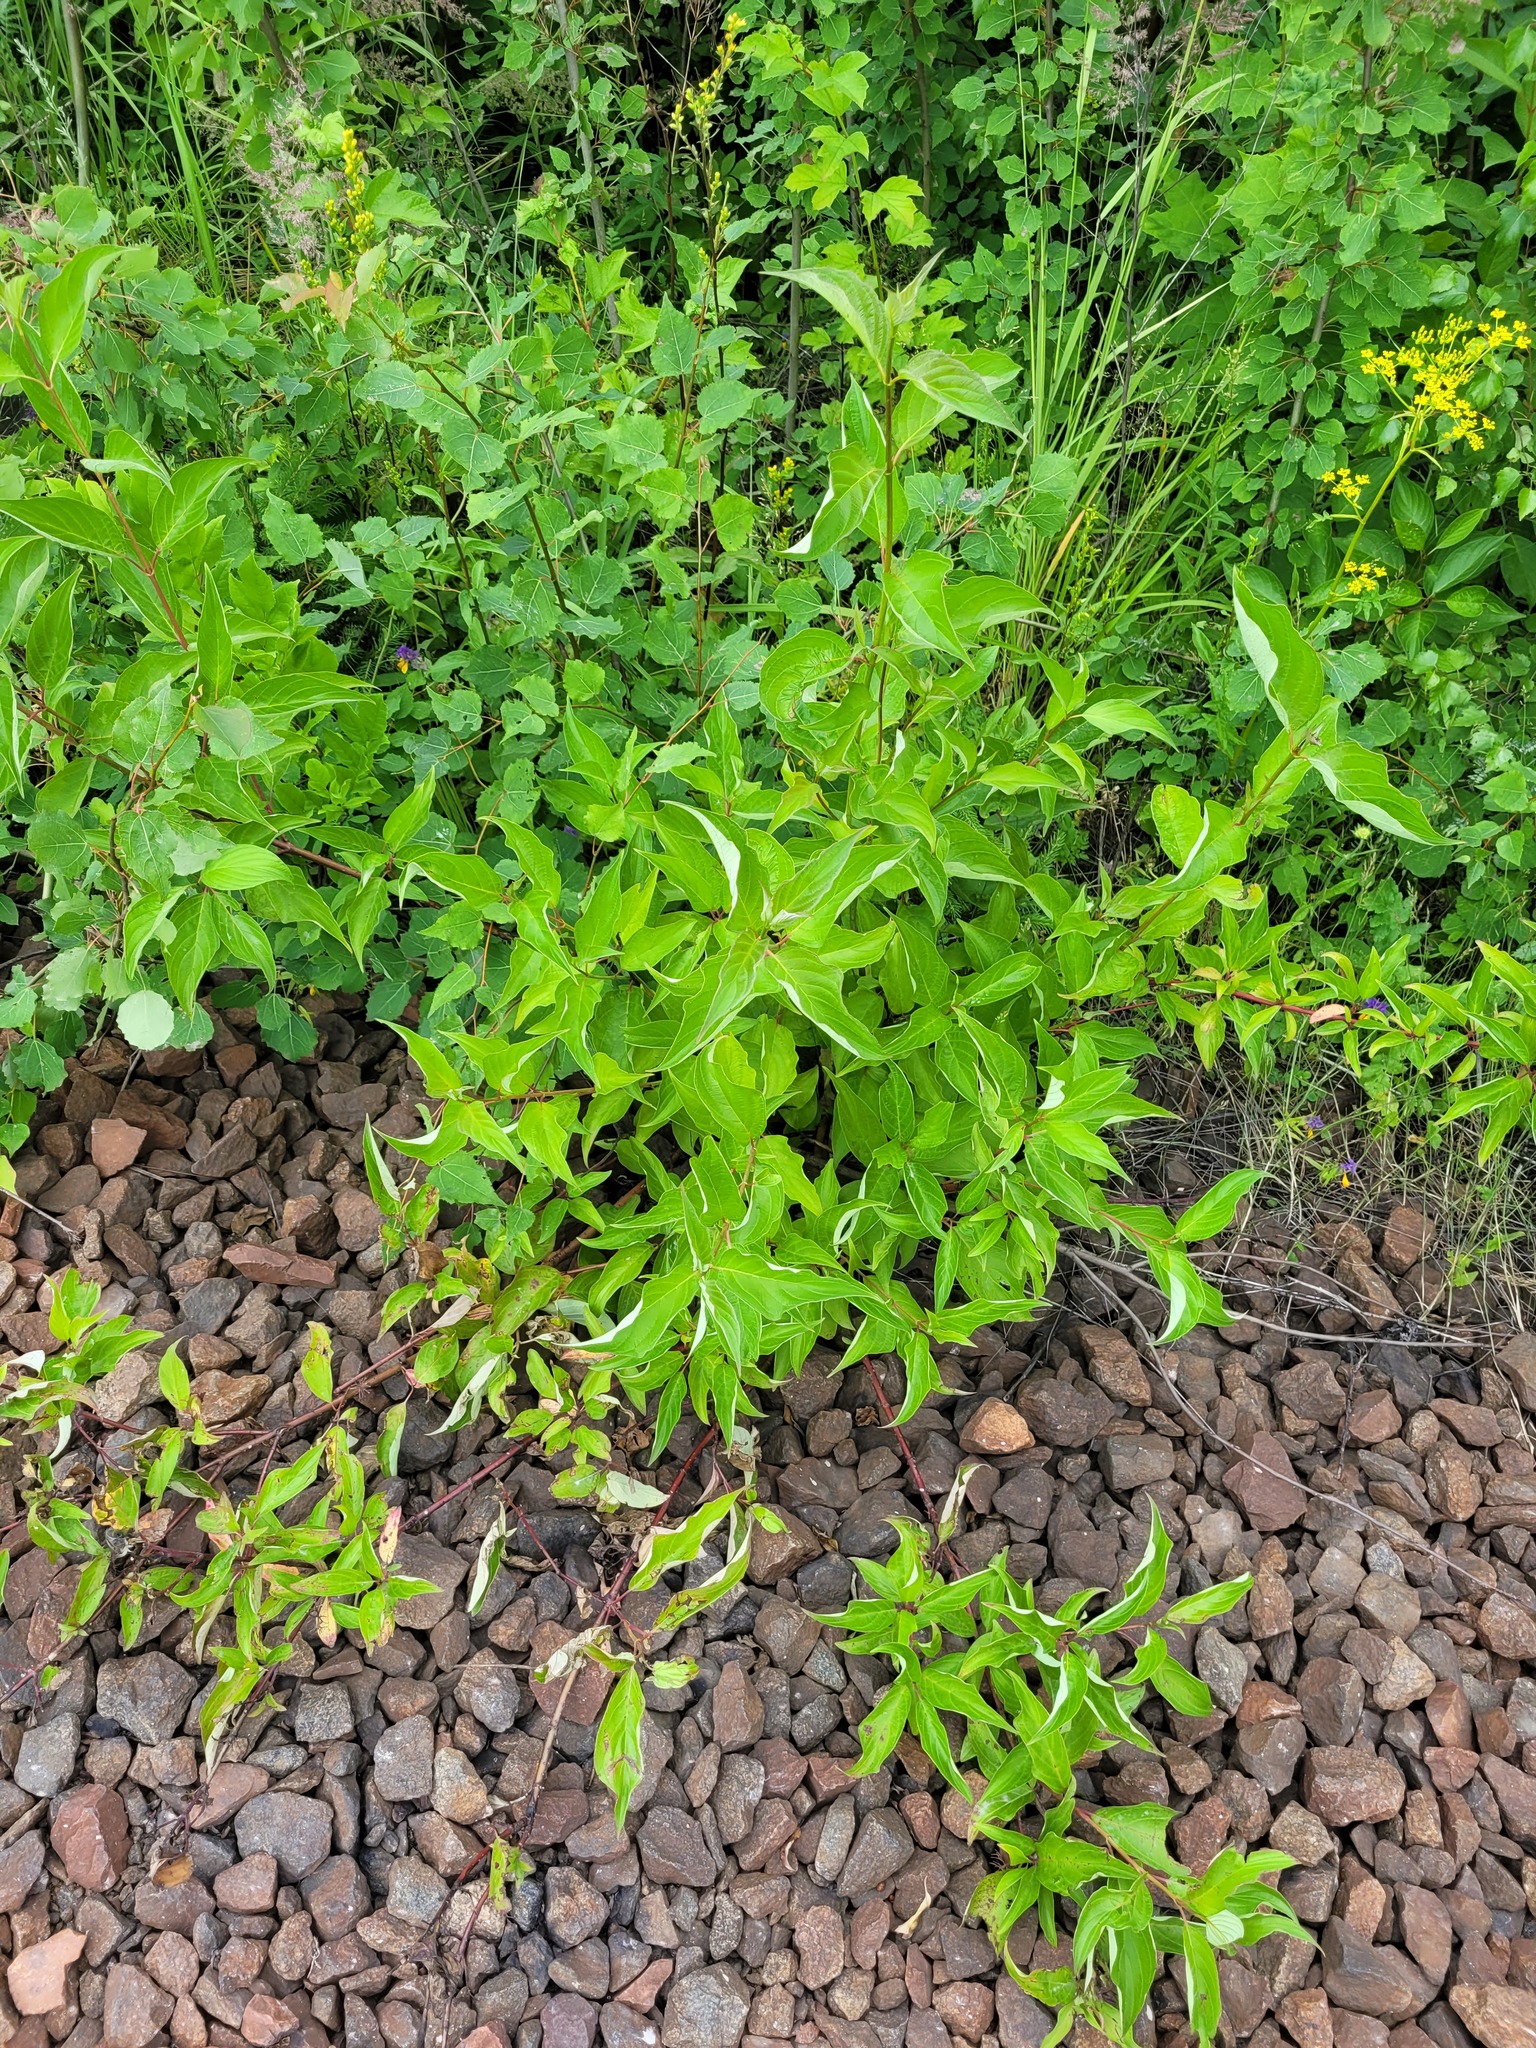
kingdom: Plantae
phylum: Tracheophyta
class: Magnoliopsida
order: Cornales
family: Cornaceae
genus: Cornus
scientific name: Cornus alba
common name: White dogwood
